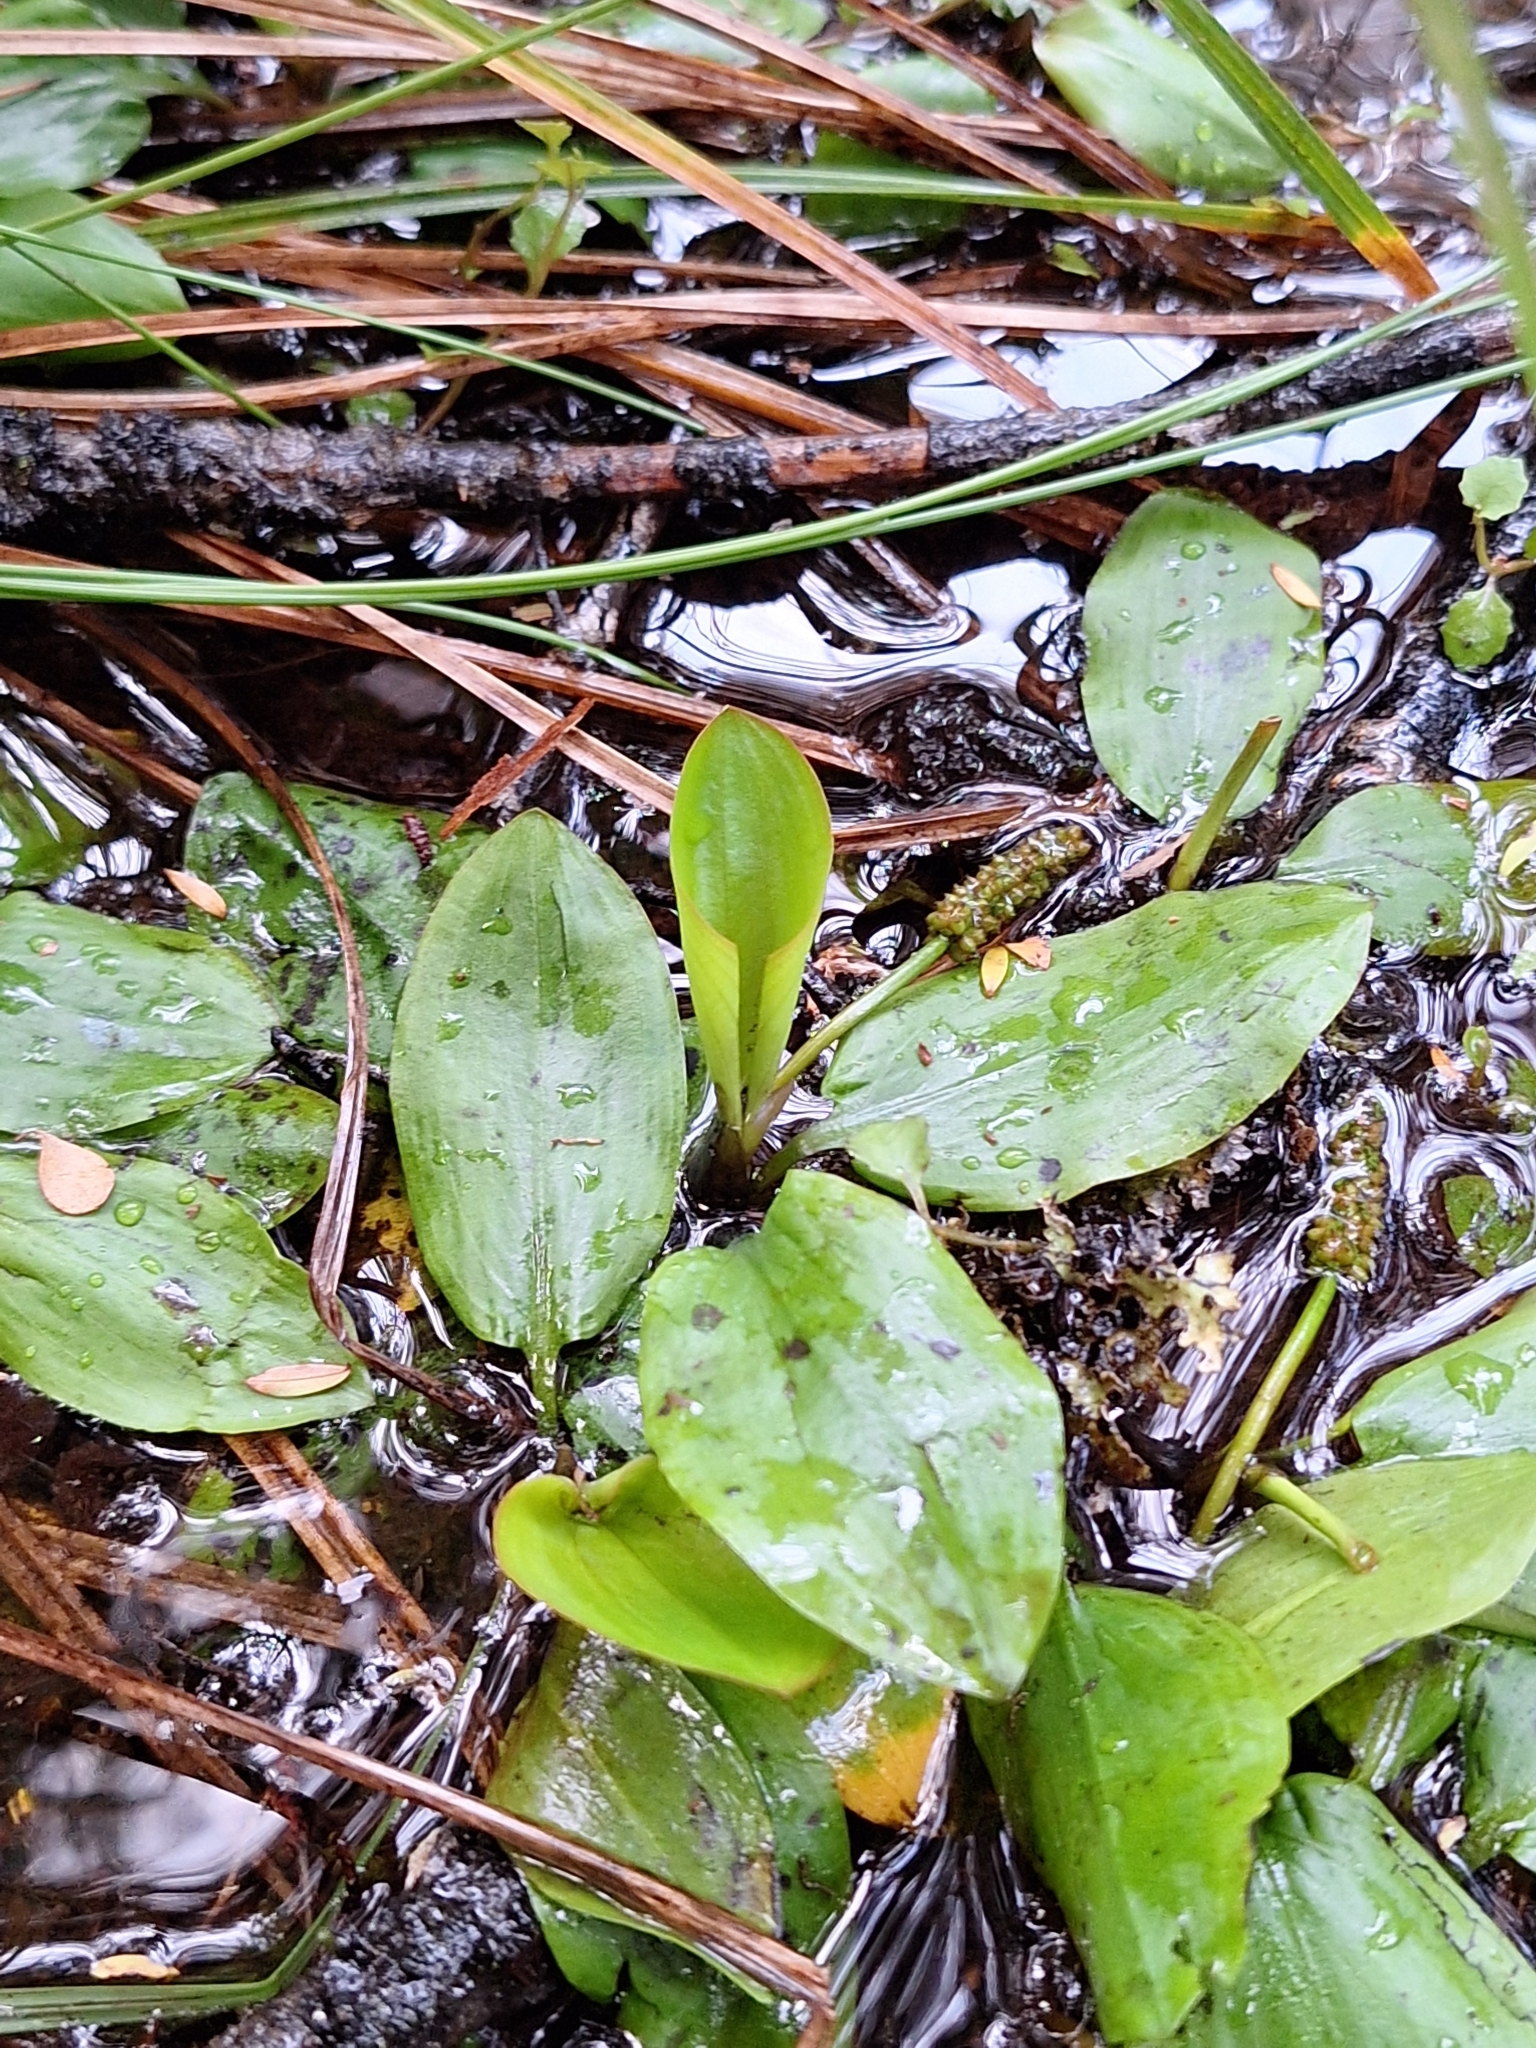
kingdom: Plantae
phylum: Tracheophyta
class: Liliopsida
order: Alismatales
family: Potamogetonaceae
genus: Potamogeton
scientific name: Potamogeton cheesemanii
